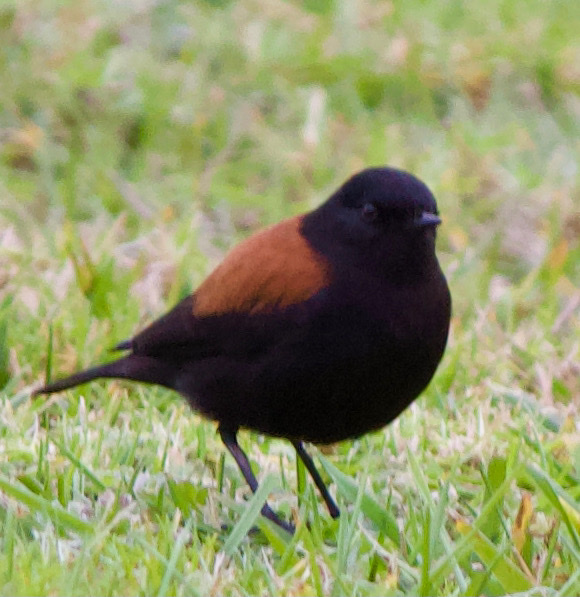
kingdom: Animalia
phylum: Chordata
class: Aves
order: Passeriformes
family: Tyrannidae
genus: Lessonia
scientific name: Lessonia rufa
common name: Austral negrito
